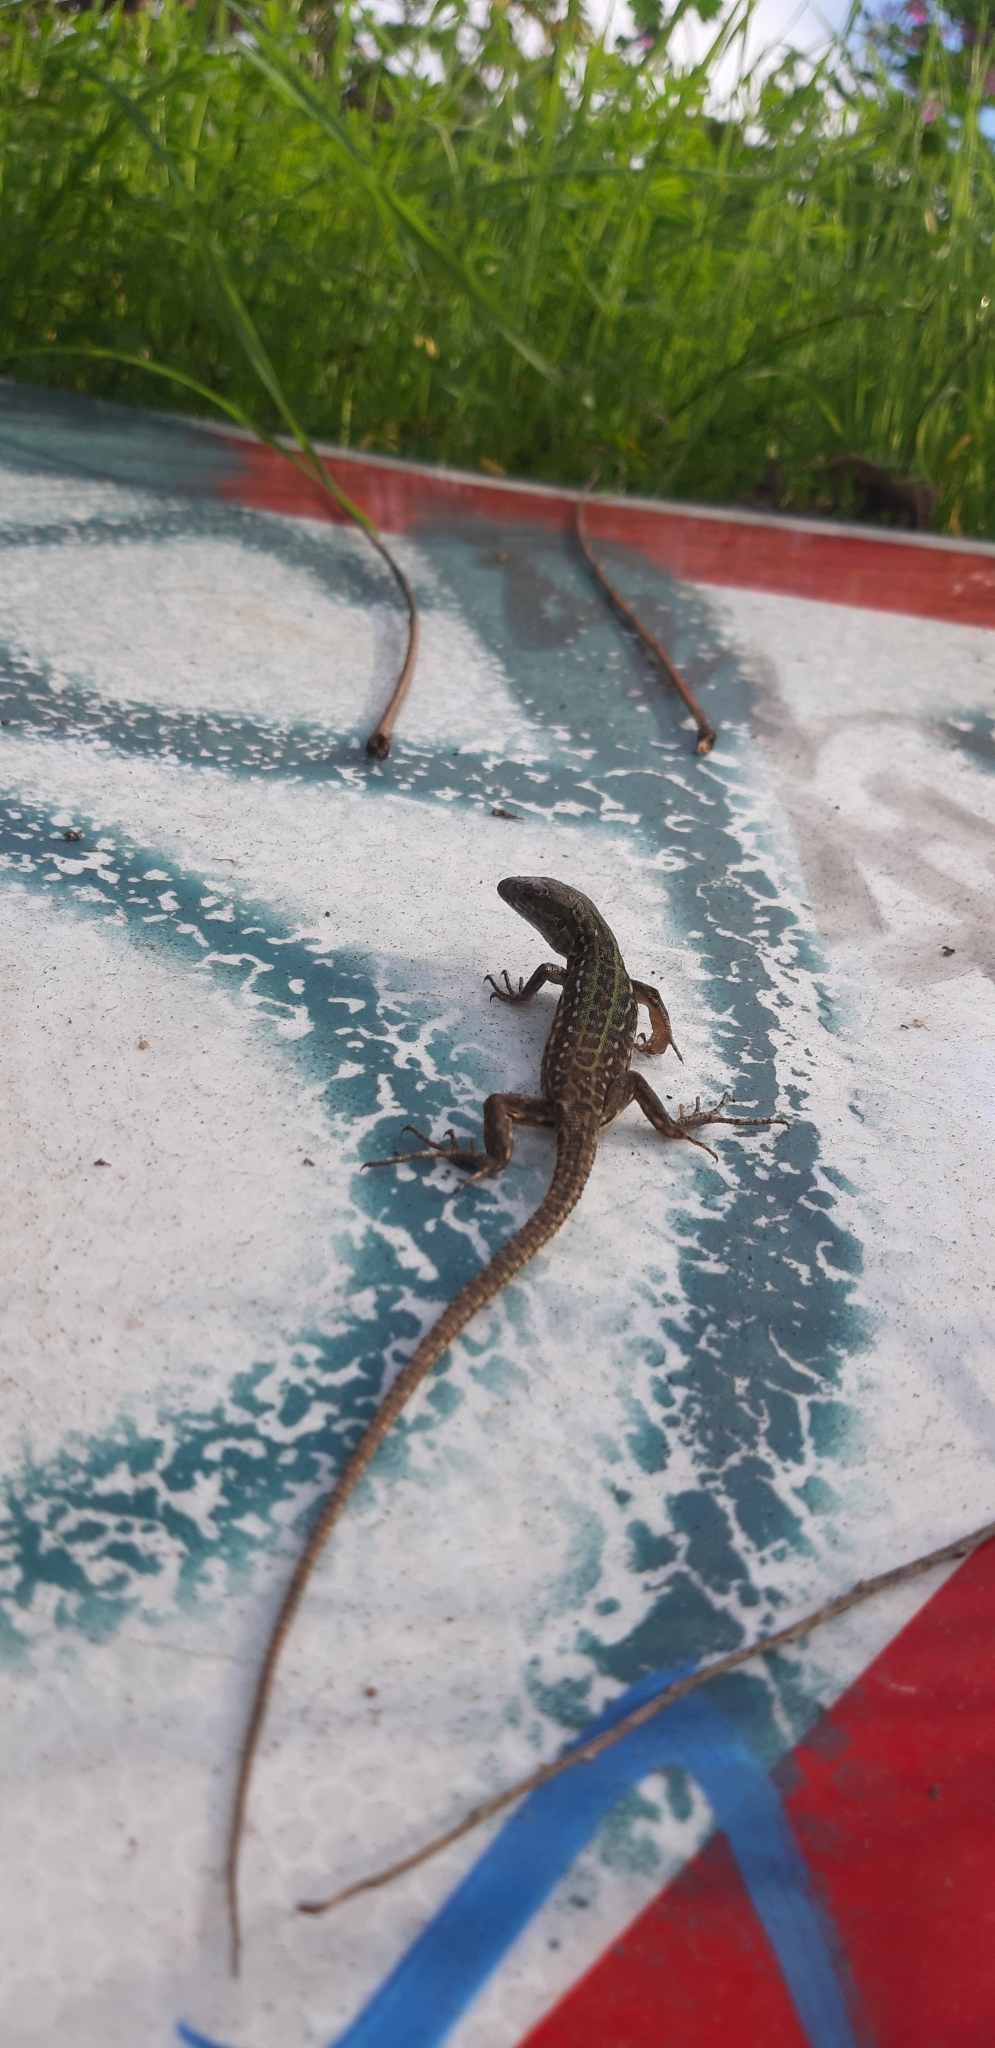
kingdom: Animalia
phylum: Chordata
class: Squamata
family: Lacertidae
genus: Podarcis
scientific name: Podarcis siculus
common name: Italian wall lizard
